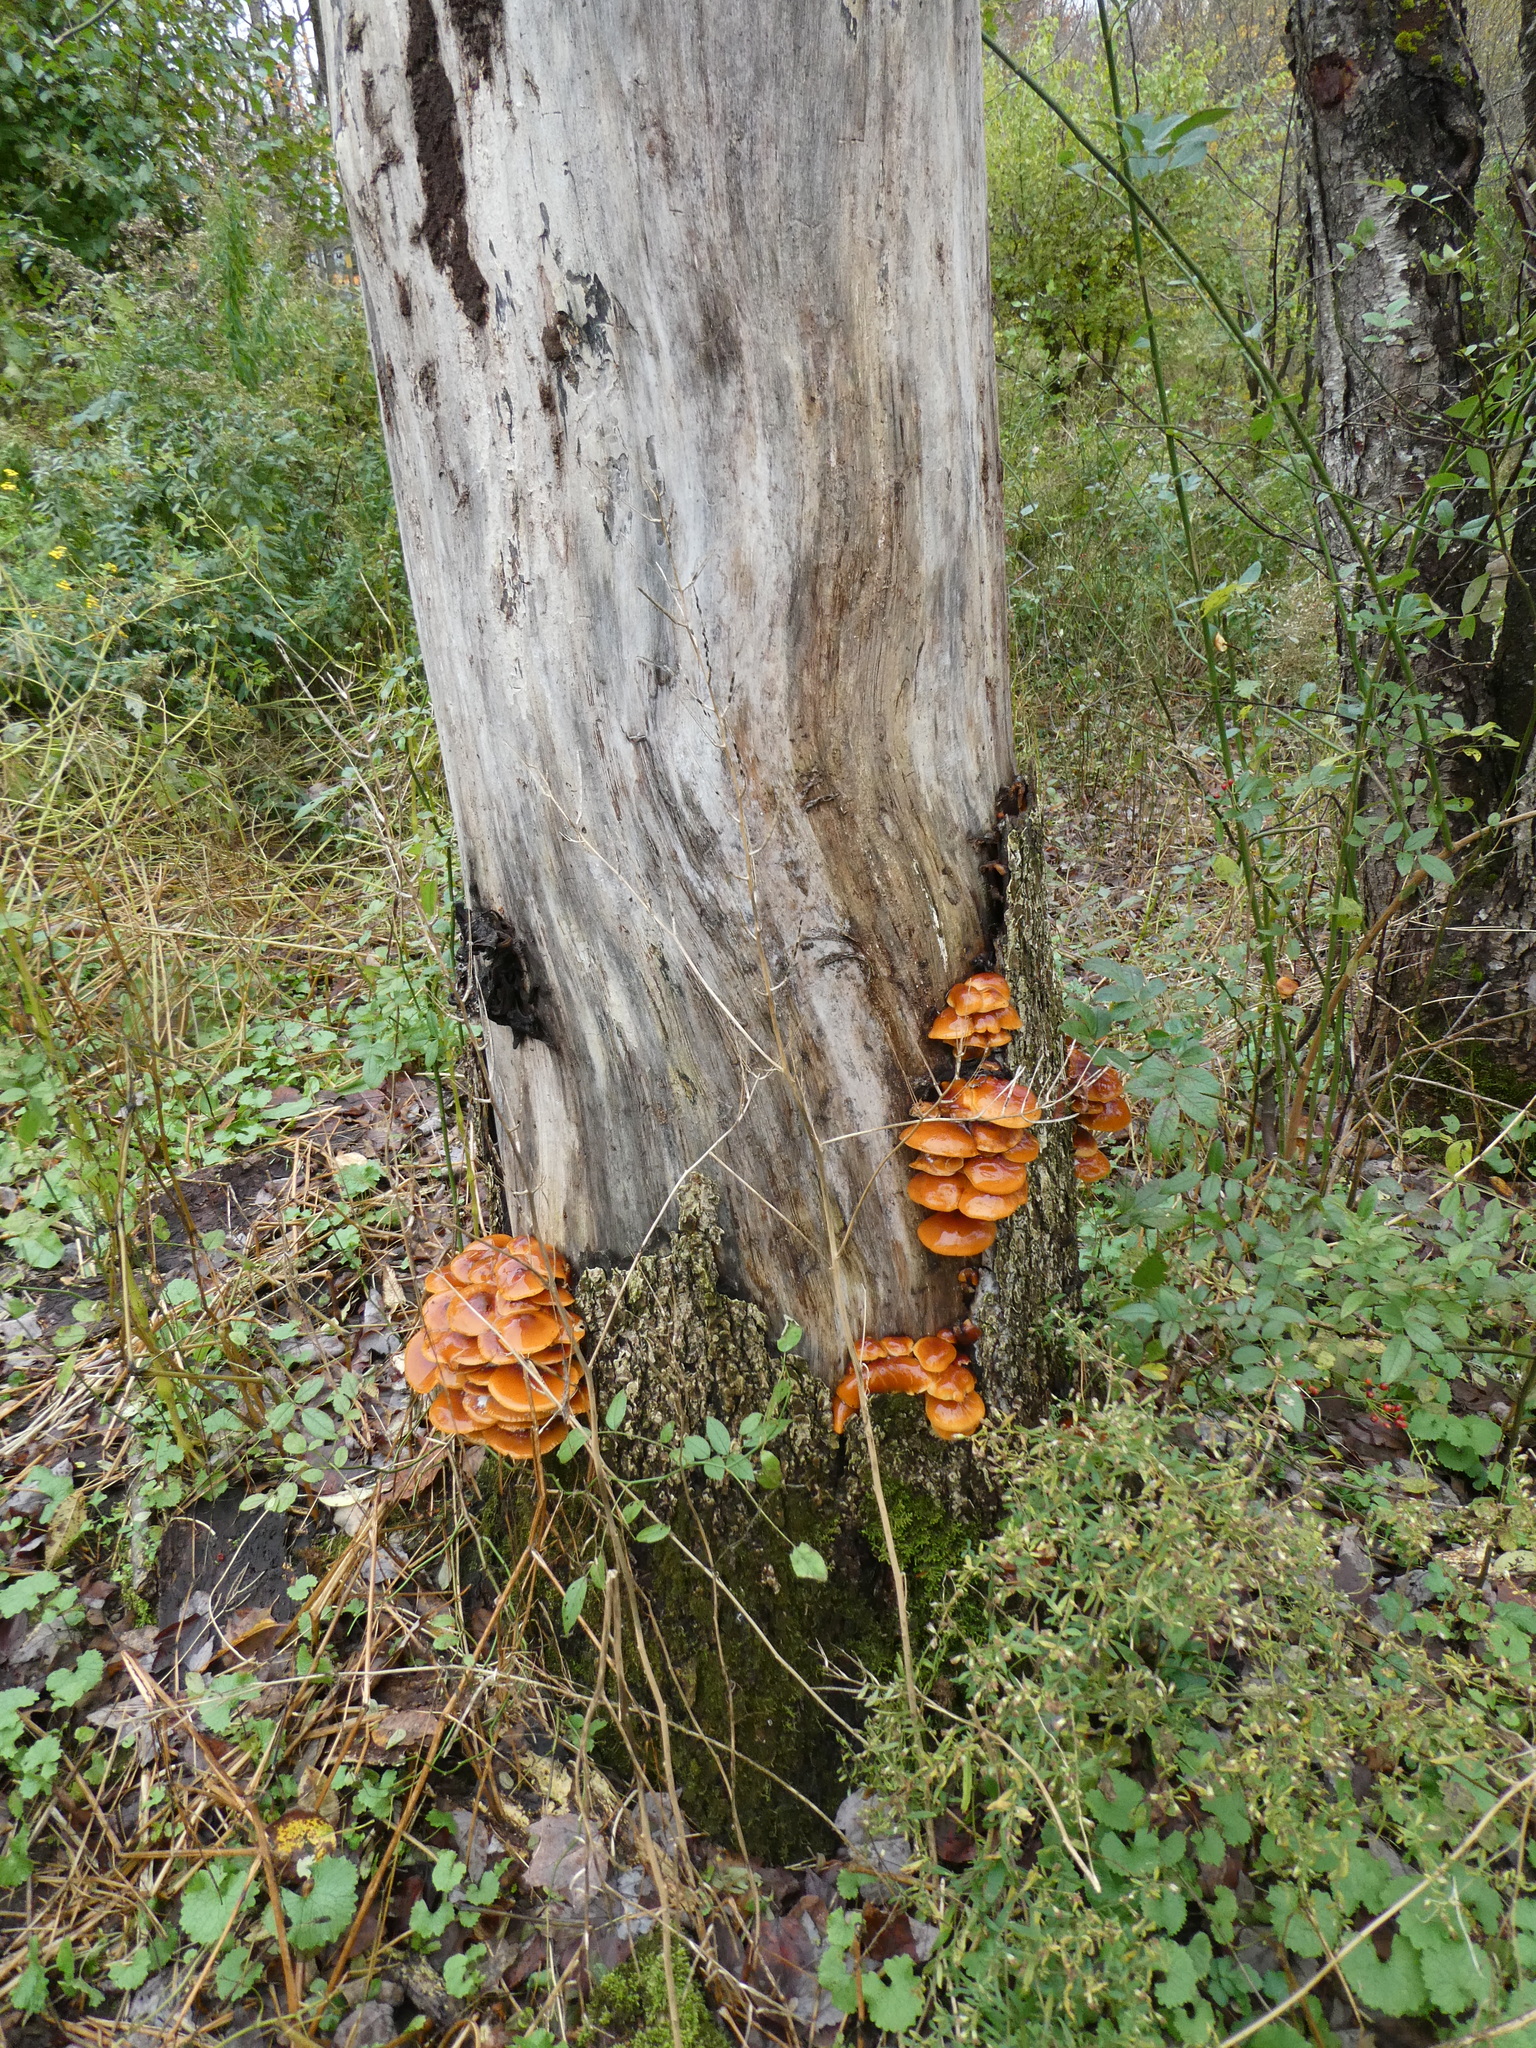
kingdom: Fungi
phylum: Basidiomycota
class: Agaricomycetes
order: Agaricales
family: Physalacriaceae
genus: Flammulina
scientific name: Flammulina velutipes
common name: Velvet shank
